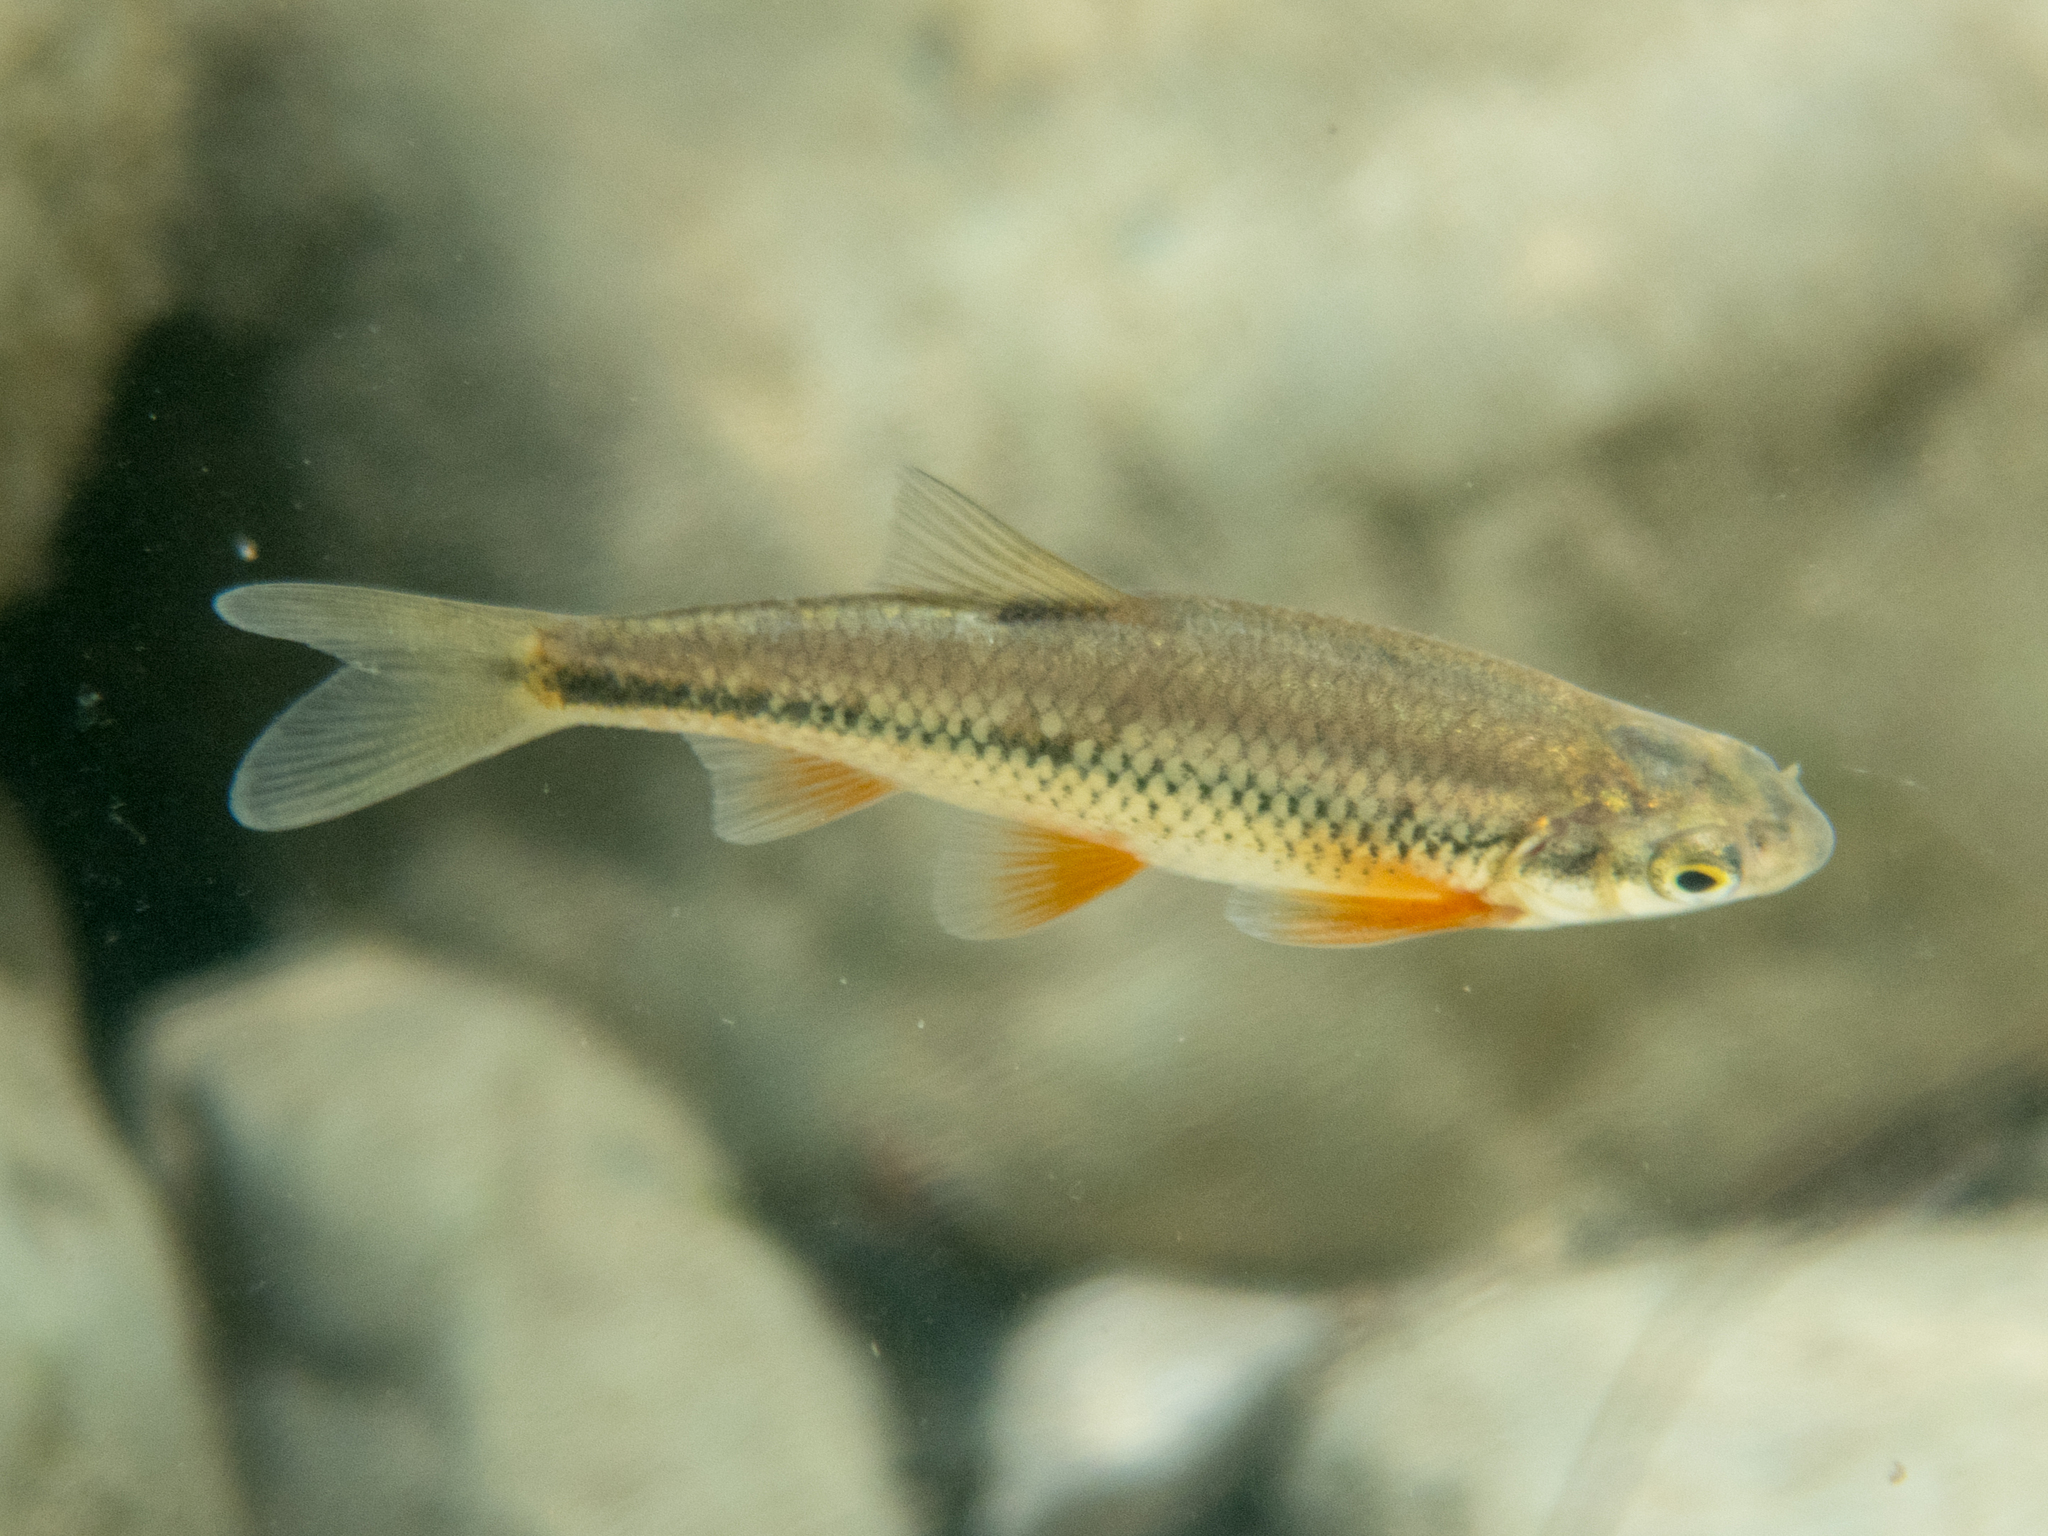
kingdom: Animalia
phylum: Chordata
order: Cypriniformes
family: Cyprinidae
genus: Sarmarutilus
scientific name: Sarmarutilus rubilio
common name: Rovella
